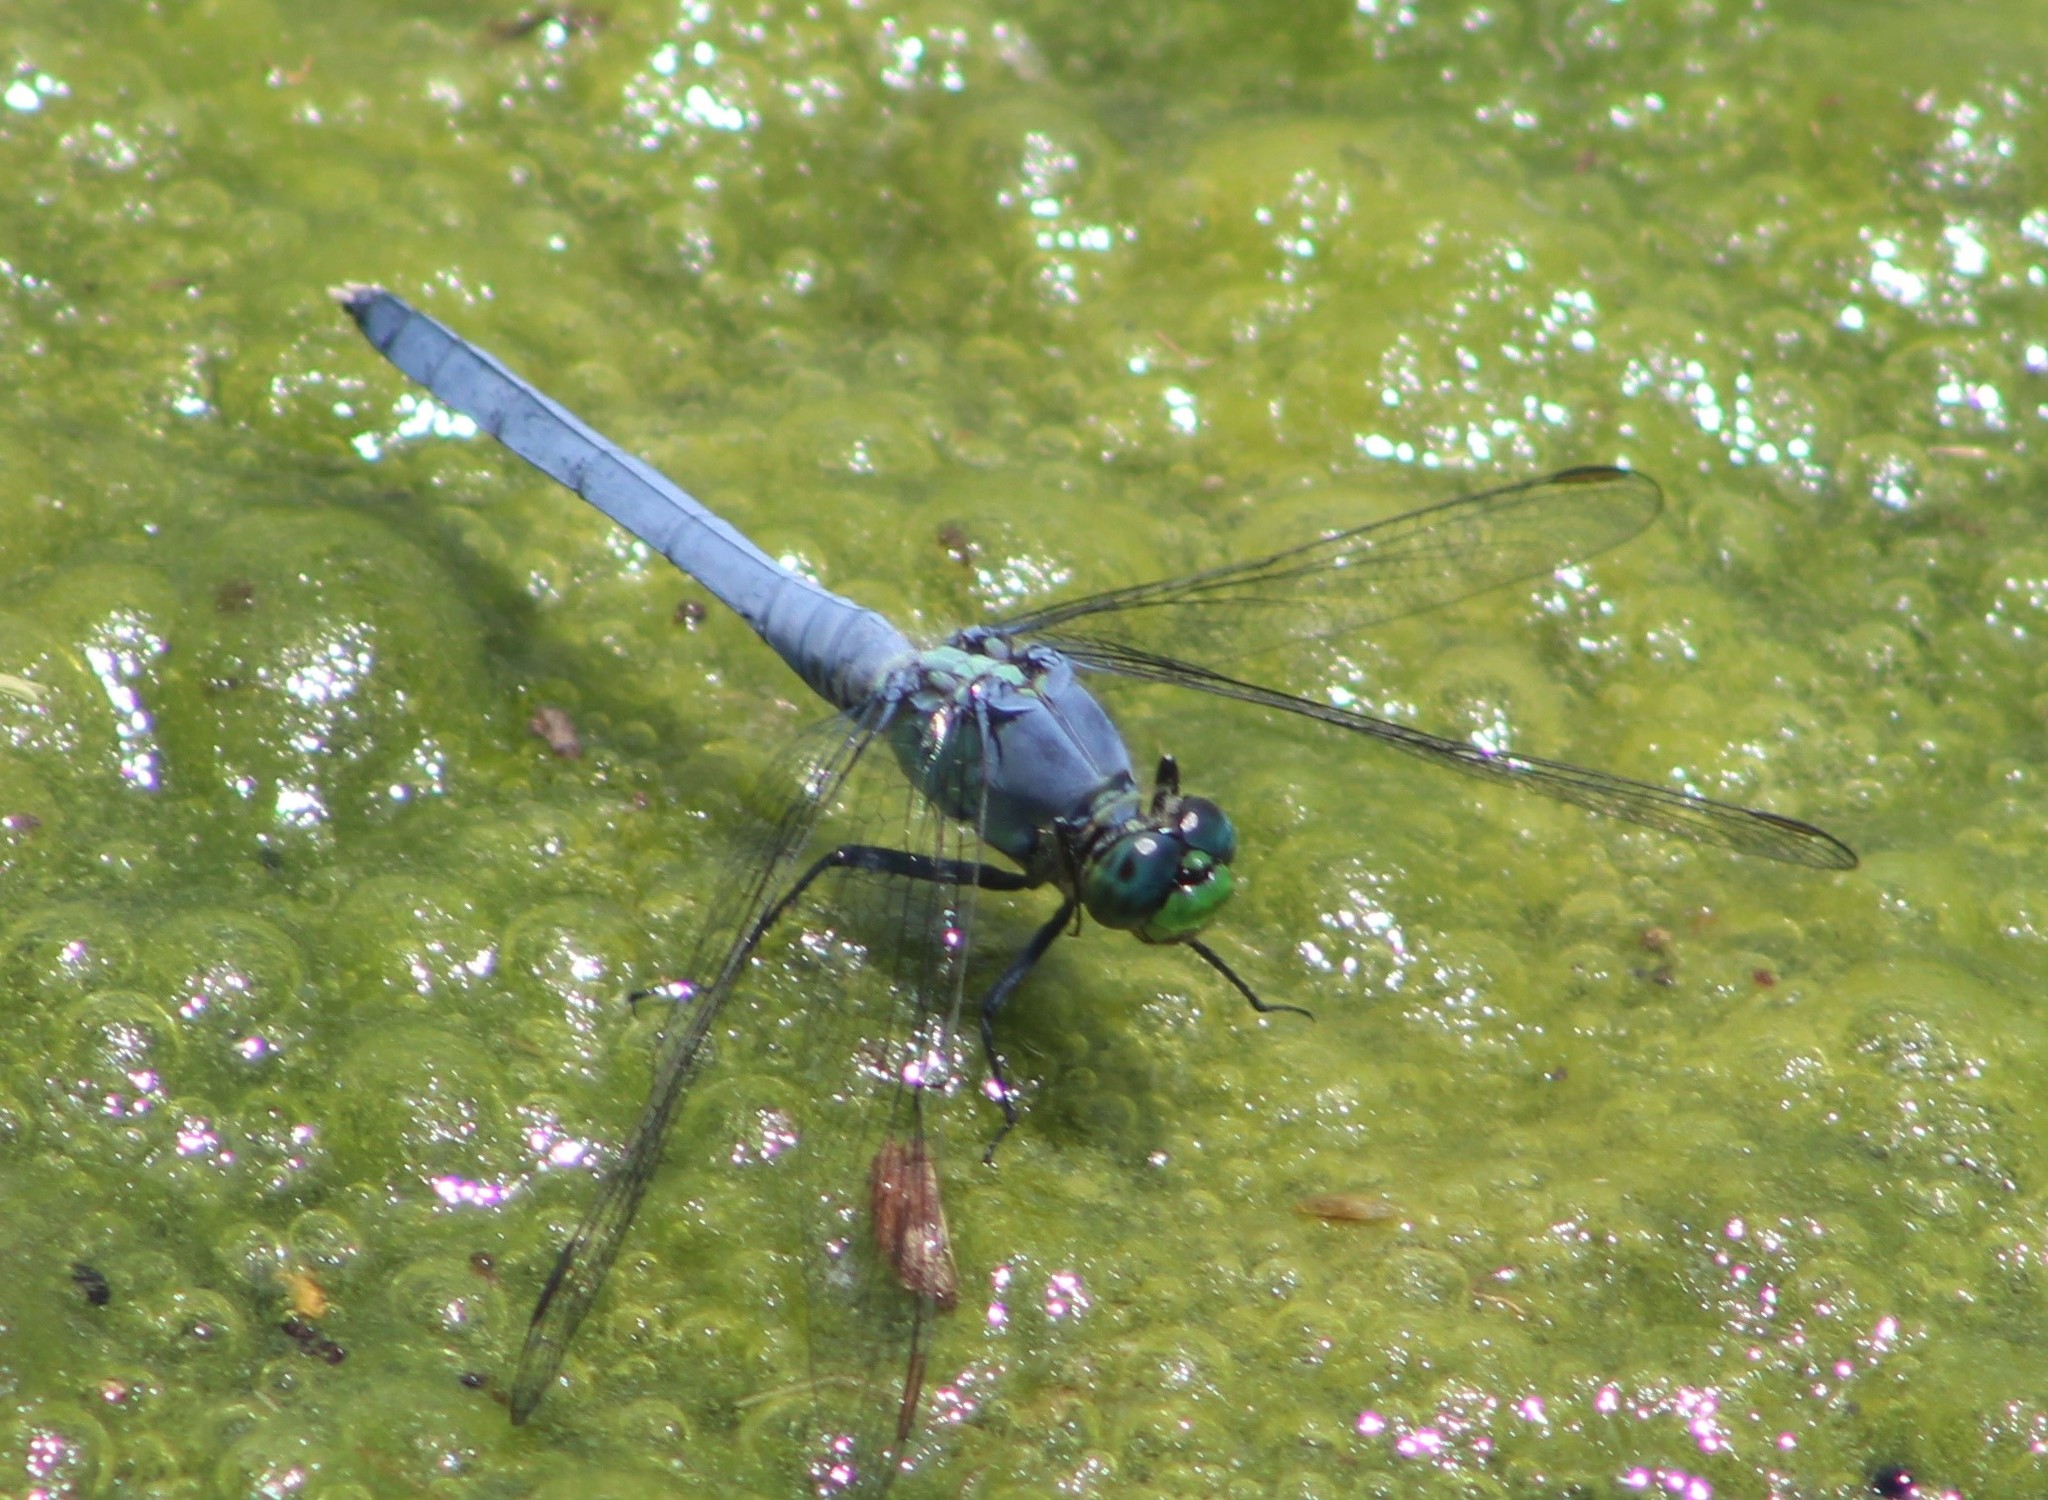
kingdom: Animalia
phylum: Arthropoda
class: Insecta
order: Odonata
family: Libellulidae
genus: Erythemis
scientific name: Erythemis simplicicollis
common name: Eastern pondhawk
